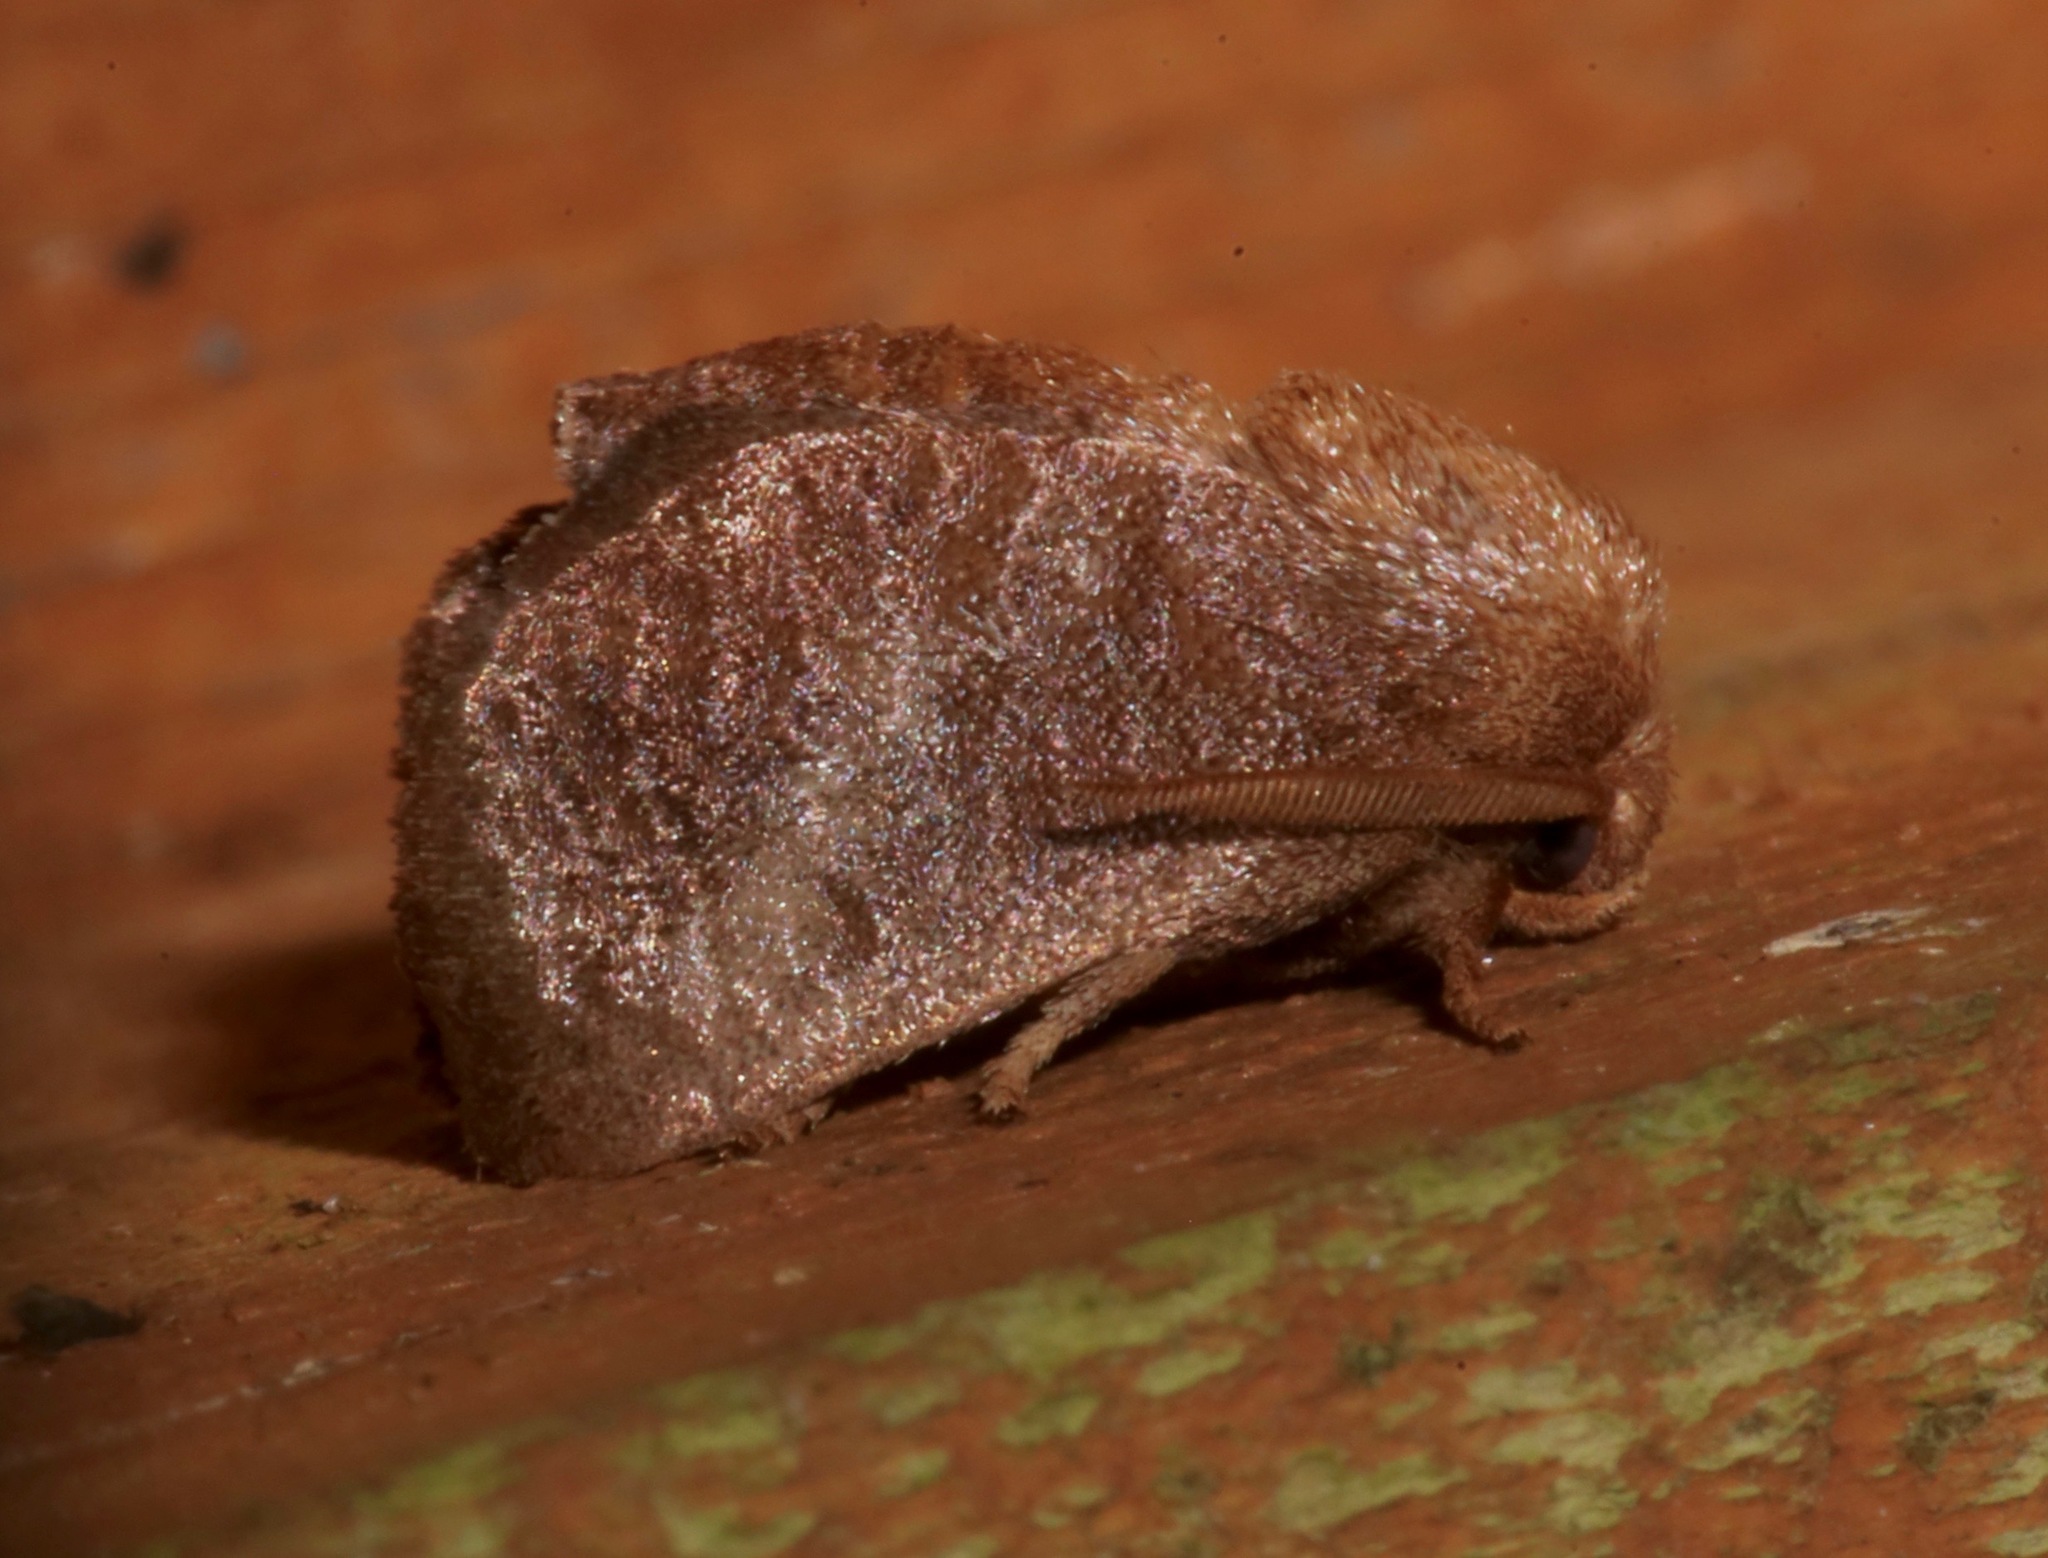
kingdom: Animalia
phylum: Arthropoda
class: Insecta
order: Lepidoptera
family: Limacodidae
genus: Isa
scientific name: Isa textula
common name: Crowned slug moth
